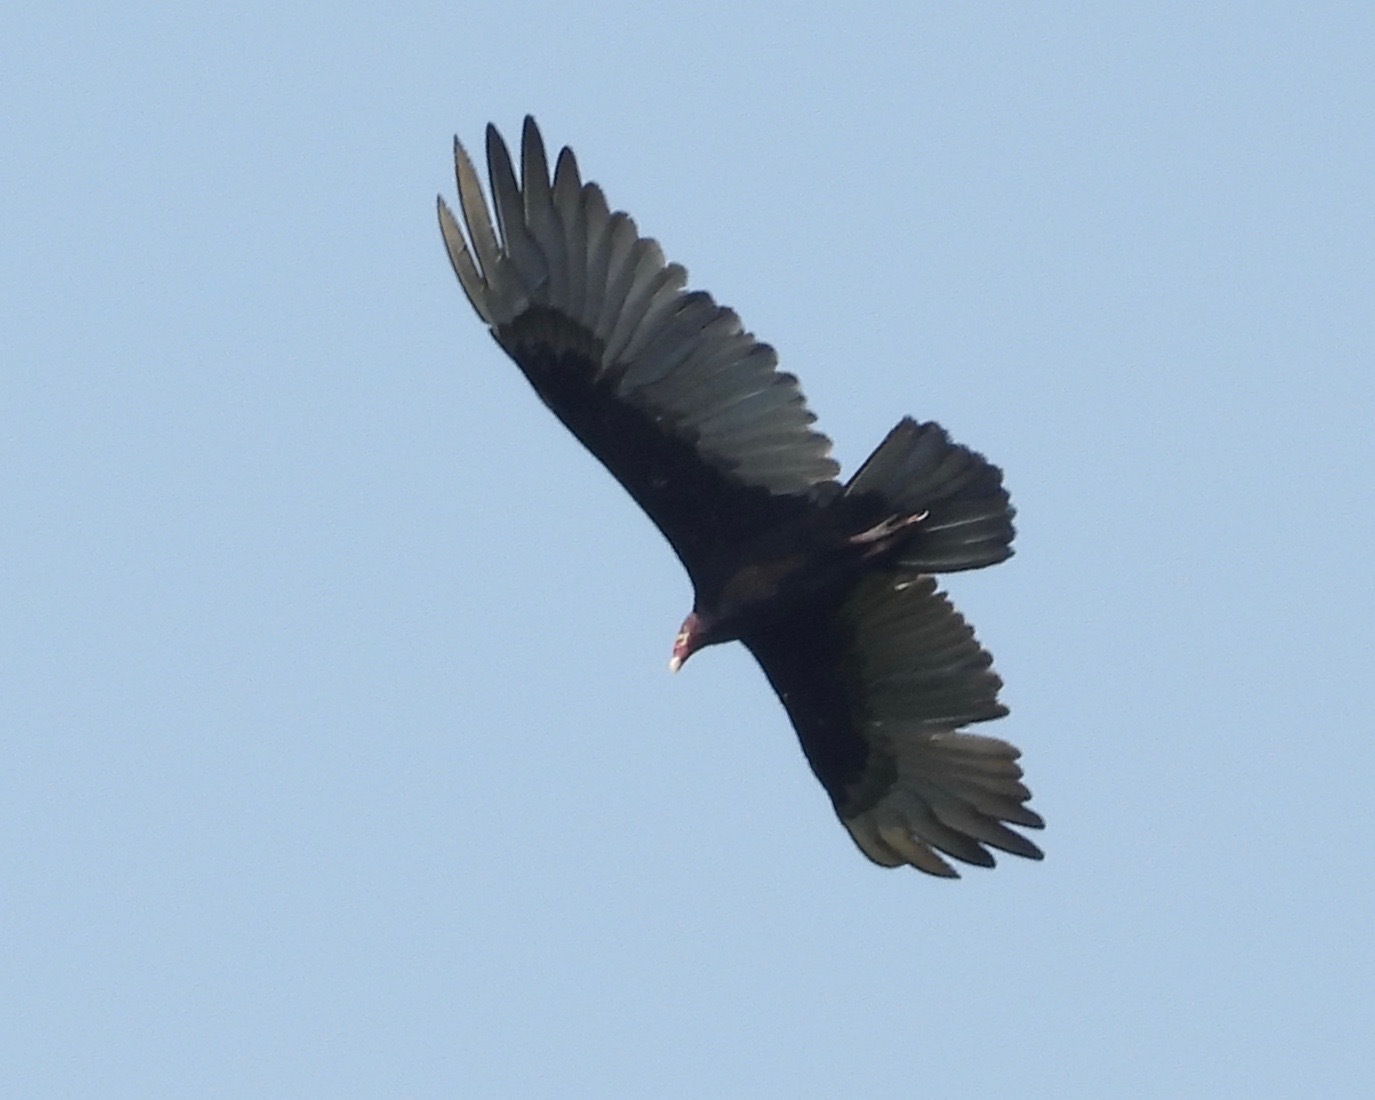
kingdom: Animalia
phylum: Chordata
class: Aves
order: Accipitriformes
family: Cathartidae
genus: Cathartes
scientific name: Cathartes aura
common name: Turkey vulture
